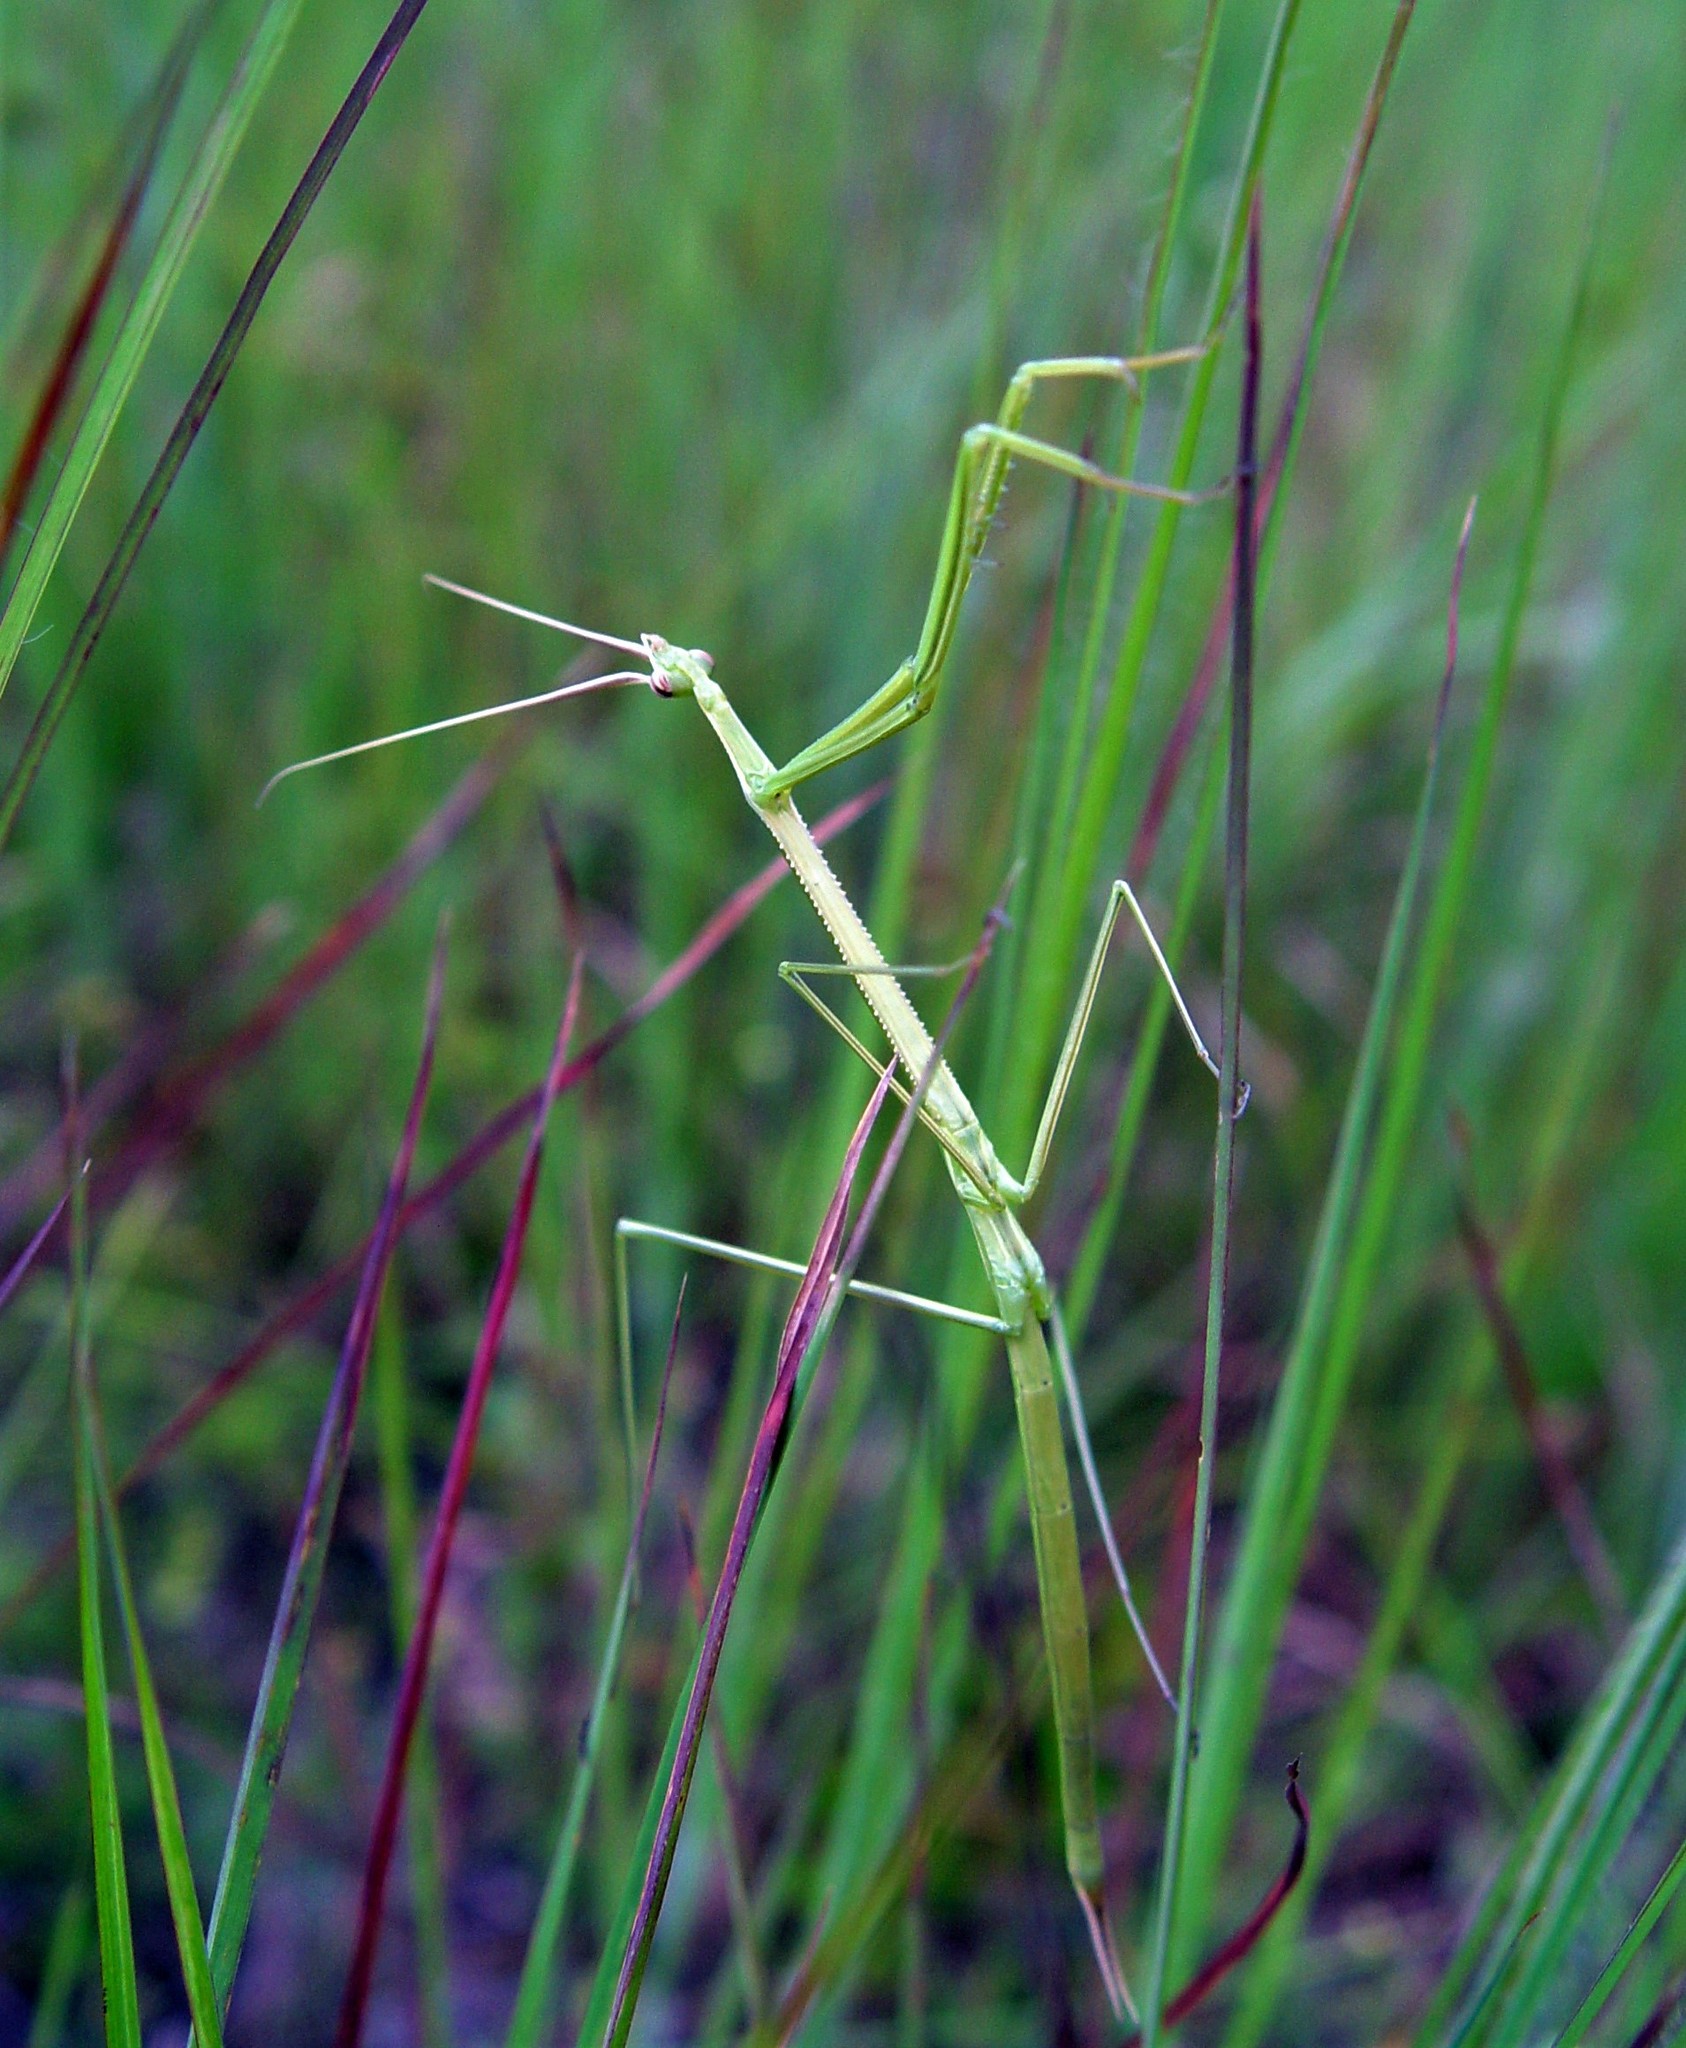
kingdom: Animalia
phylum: Arthropoda
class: Insecta
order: Mantodea
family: Coptopterygidae
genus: Brunneria
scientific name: Brunneria borealis
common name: Mantis
